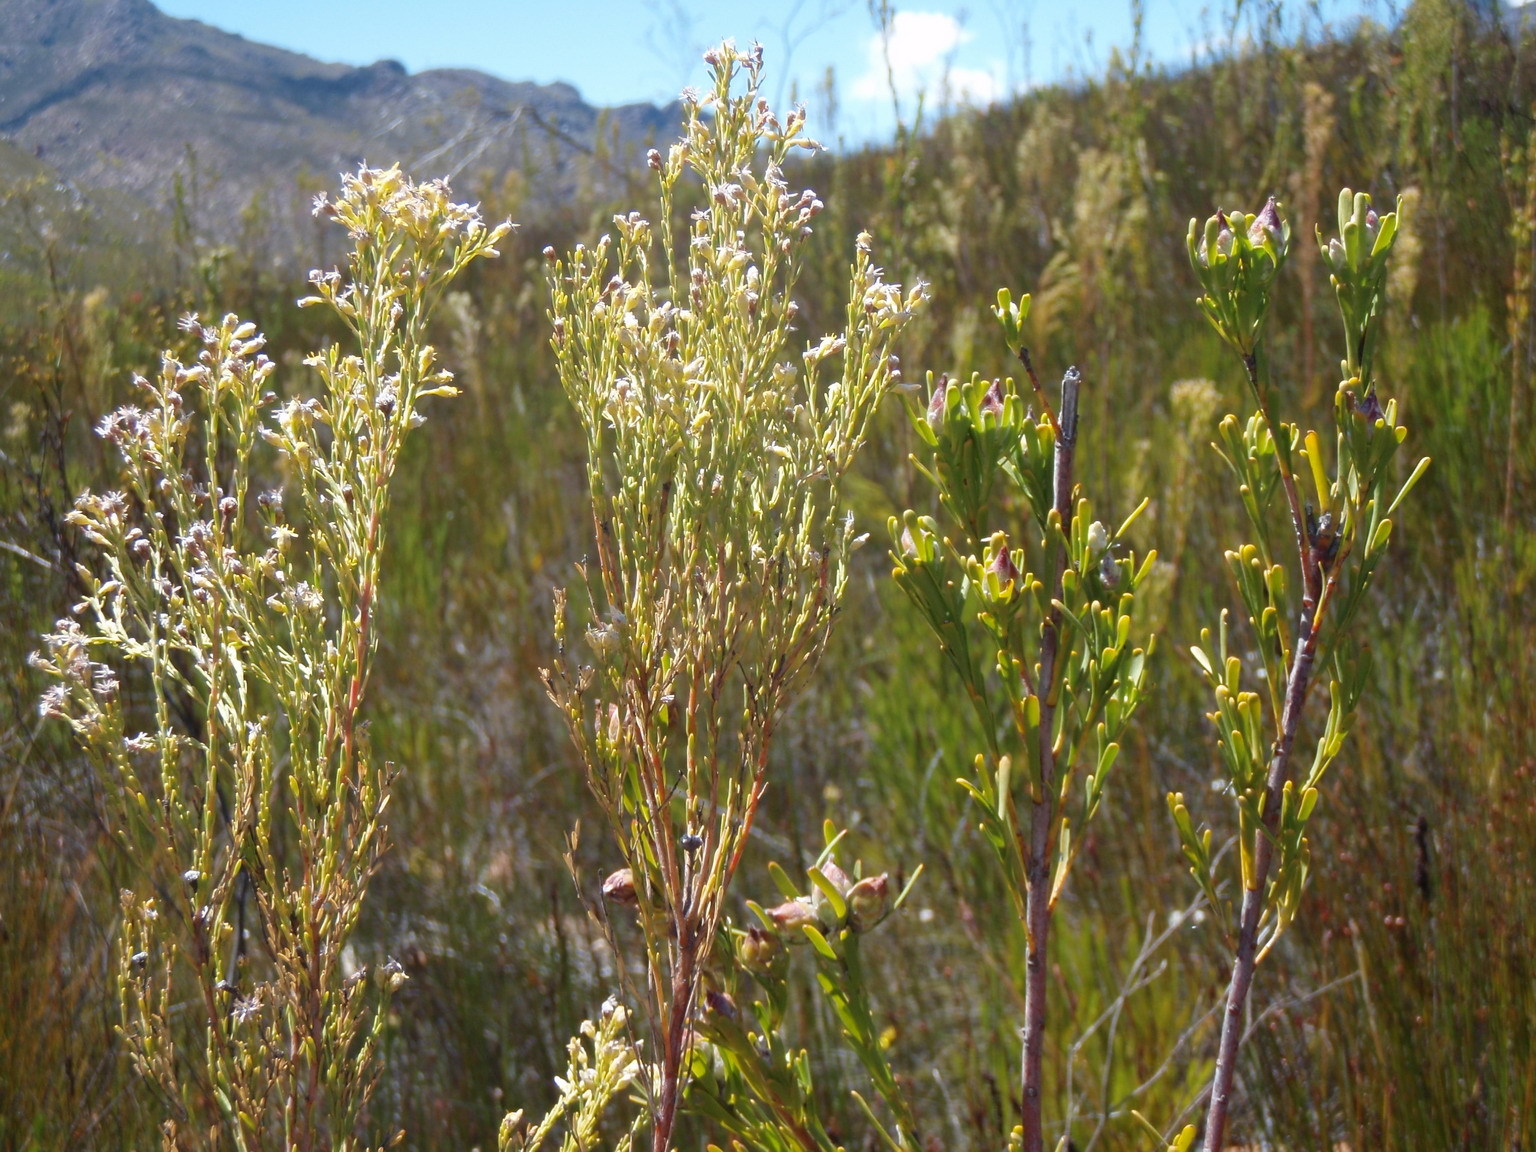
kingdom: Plantae
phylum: Tracheophyta
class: Magnoliopsida
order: Proteales
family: Proteaceae
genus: Leucadendron
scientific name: Leucadendron ericifolium
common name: Erica-leaved conebush
